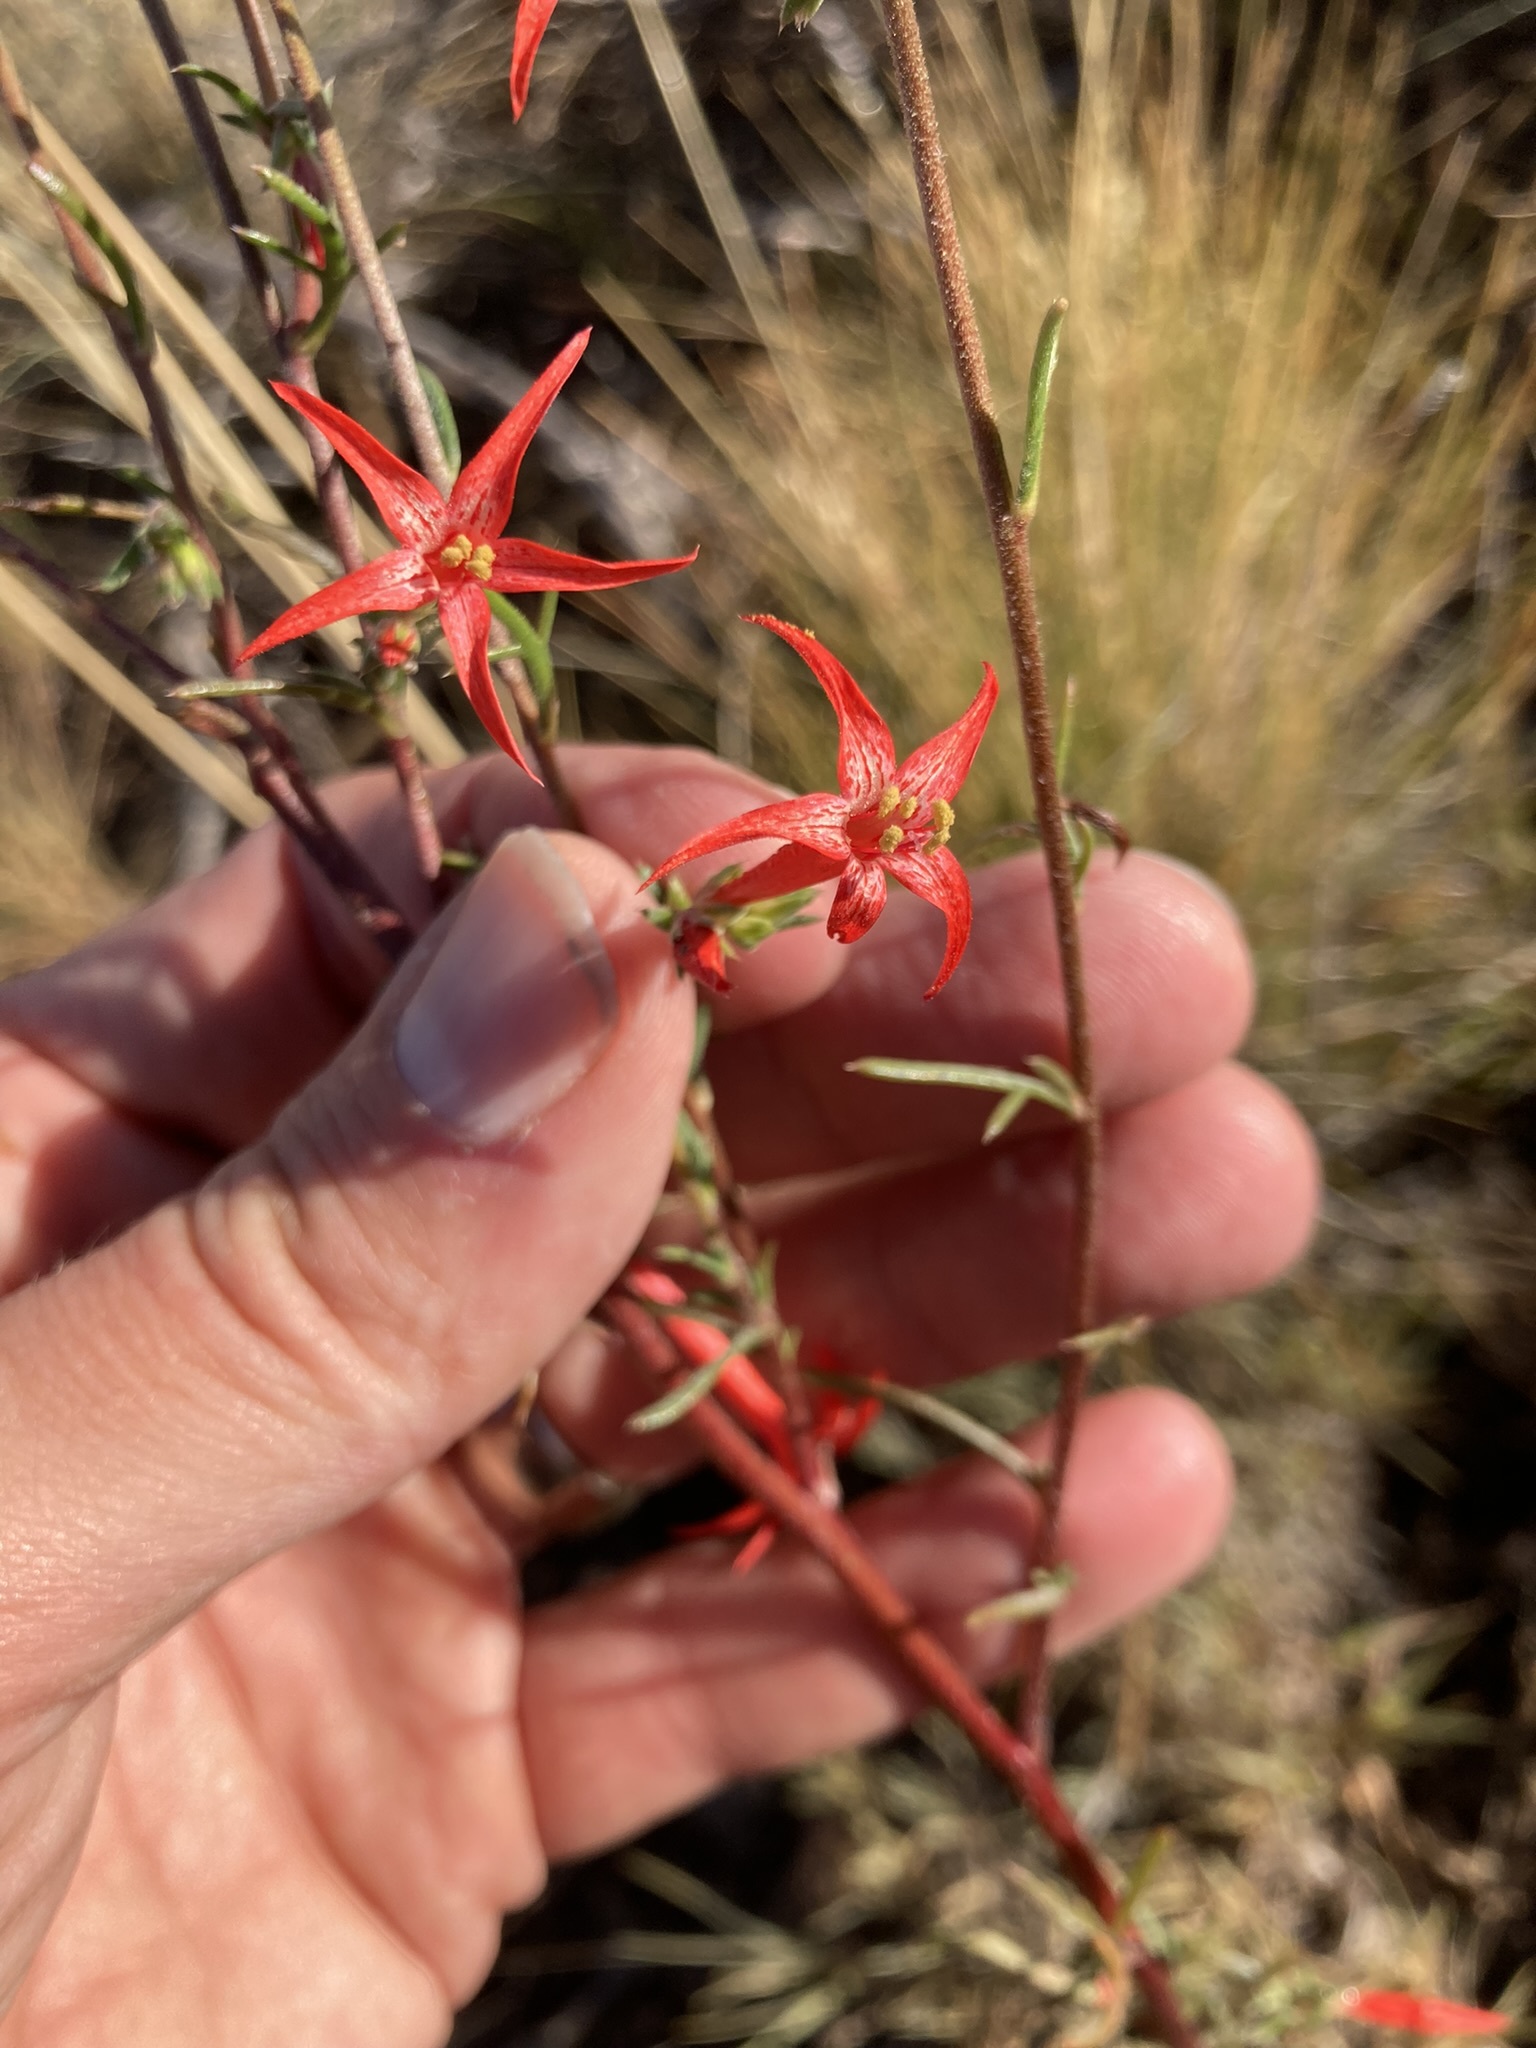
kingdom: Plantae
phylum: Tracheophyta
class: Magnoliopsida
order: Ericales
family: Polemoniaceae
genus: Ipomopsis
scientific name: Ipomopsis aggregata
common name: Scarlet gilia
